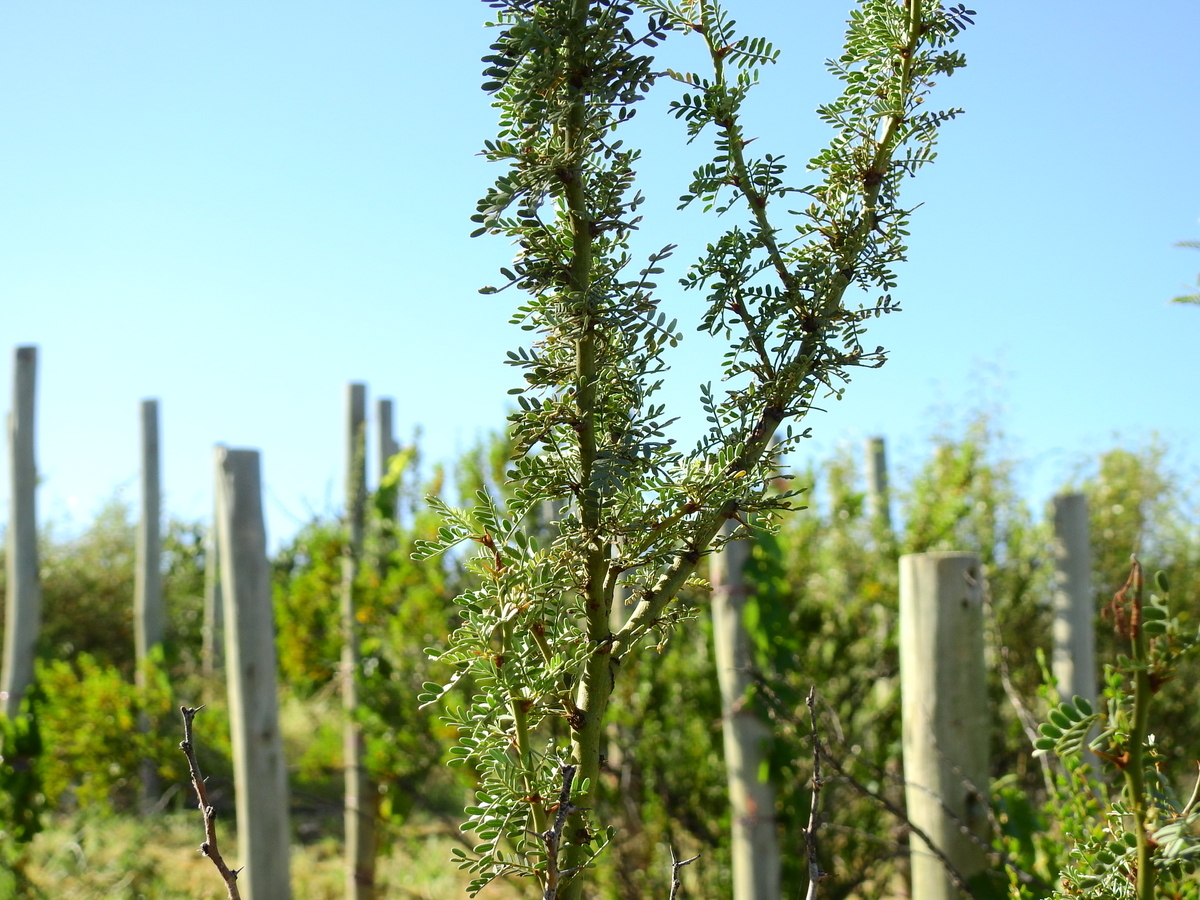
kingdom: Plantae
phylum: Tracheophyta
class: Magnoliopsida
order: Fabales
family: Fabaceae
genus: Parkinsonia
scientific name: Parkinsonia praecox
